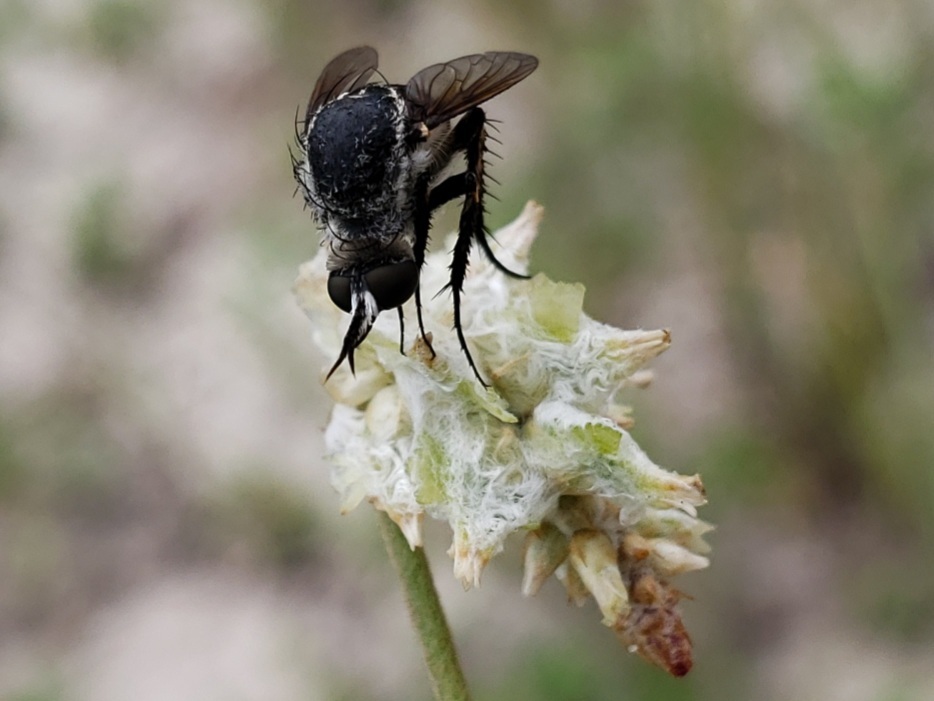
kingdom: Animalia
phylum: Arthropoda
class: Insecta
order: Diptera
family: Bombyliidae
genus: Toxophora
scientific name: Toxophora amphitea
